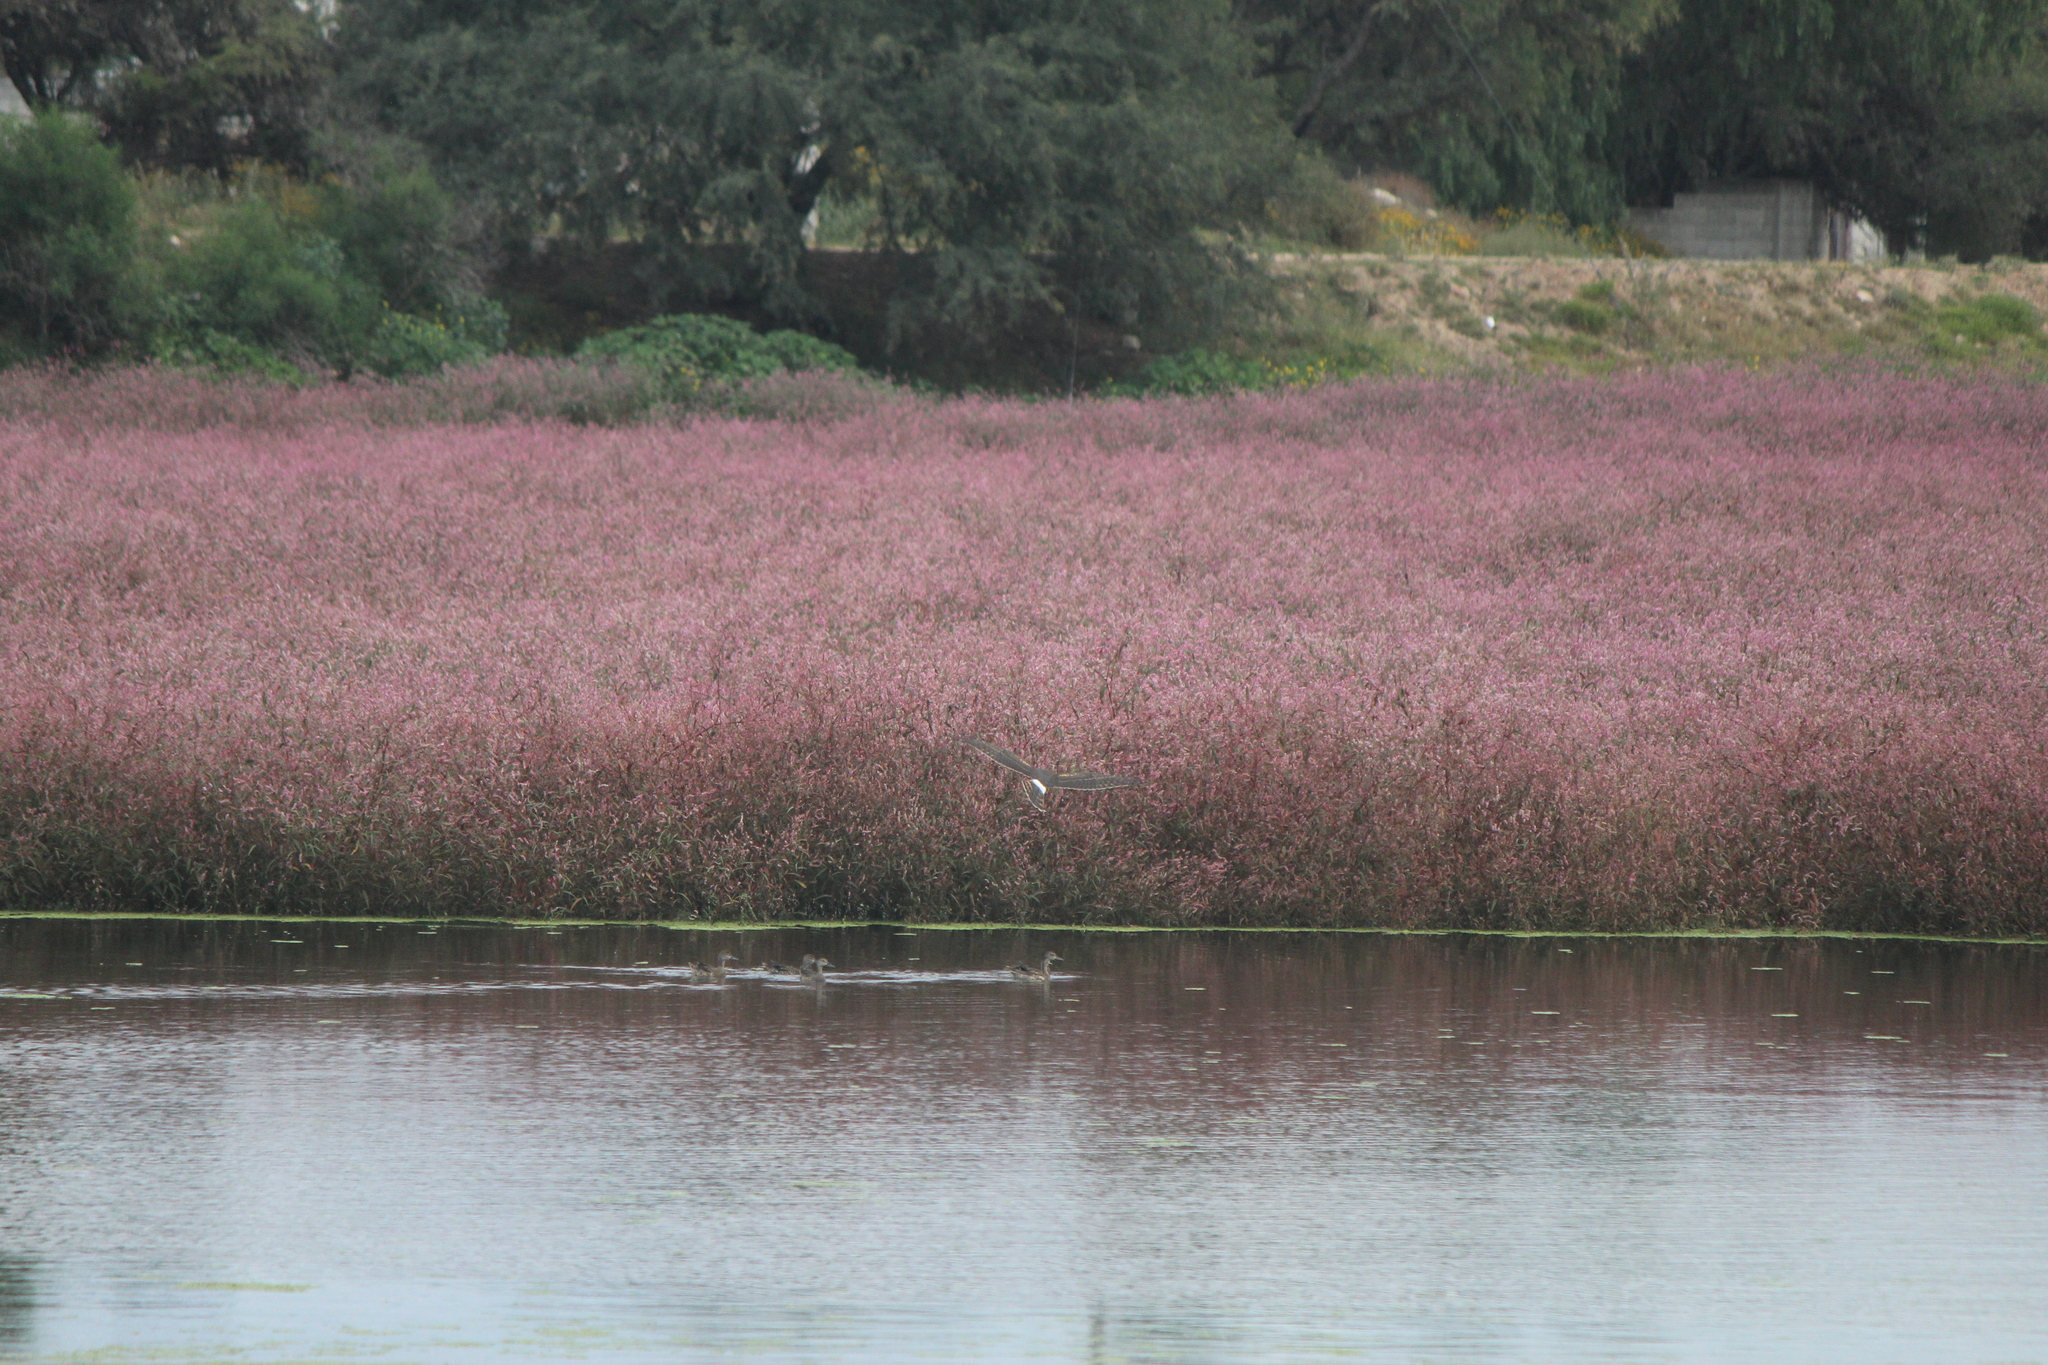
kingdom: Animalia
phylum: Chordata
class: Aves
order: Anseriformes
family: Anatidae
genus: Spatula
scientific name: Spatula discors
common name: Blue-winged teal
